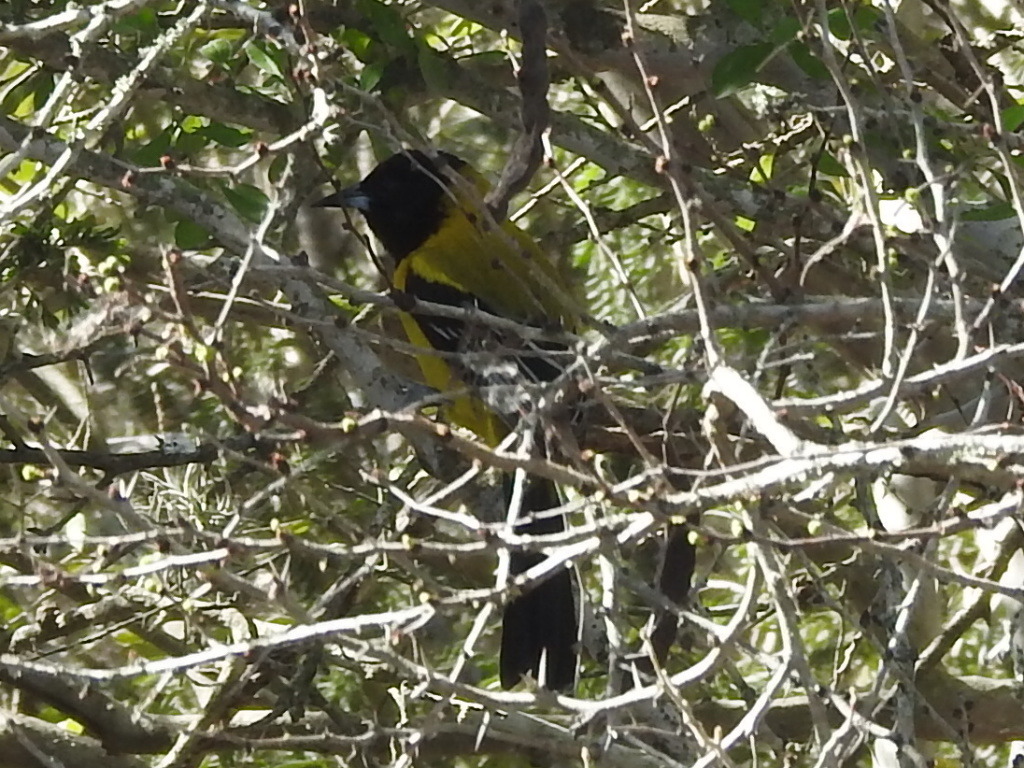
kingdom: Animalia
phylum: Chordata
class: Aves
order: Passeriformes
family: Icteridae
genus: Icterus
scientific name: Icterus graduacauda
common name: Audubon's oriole
